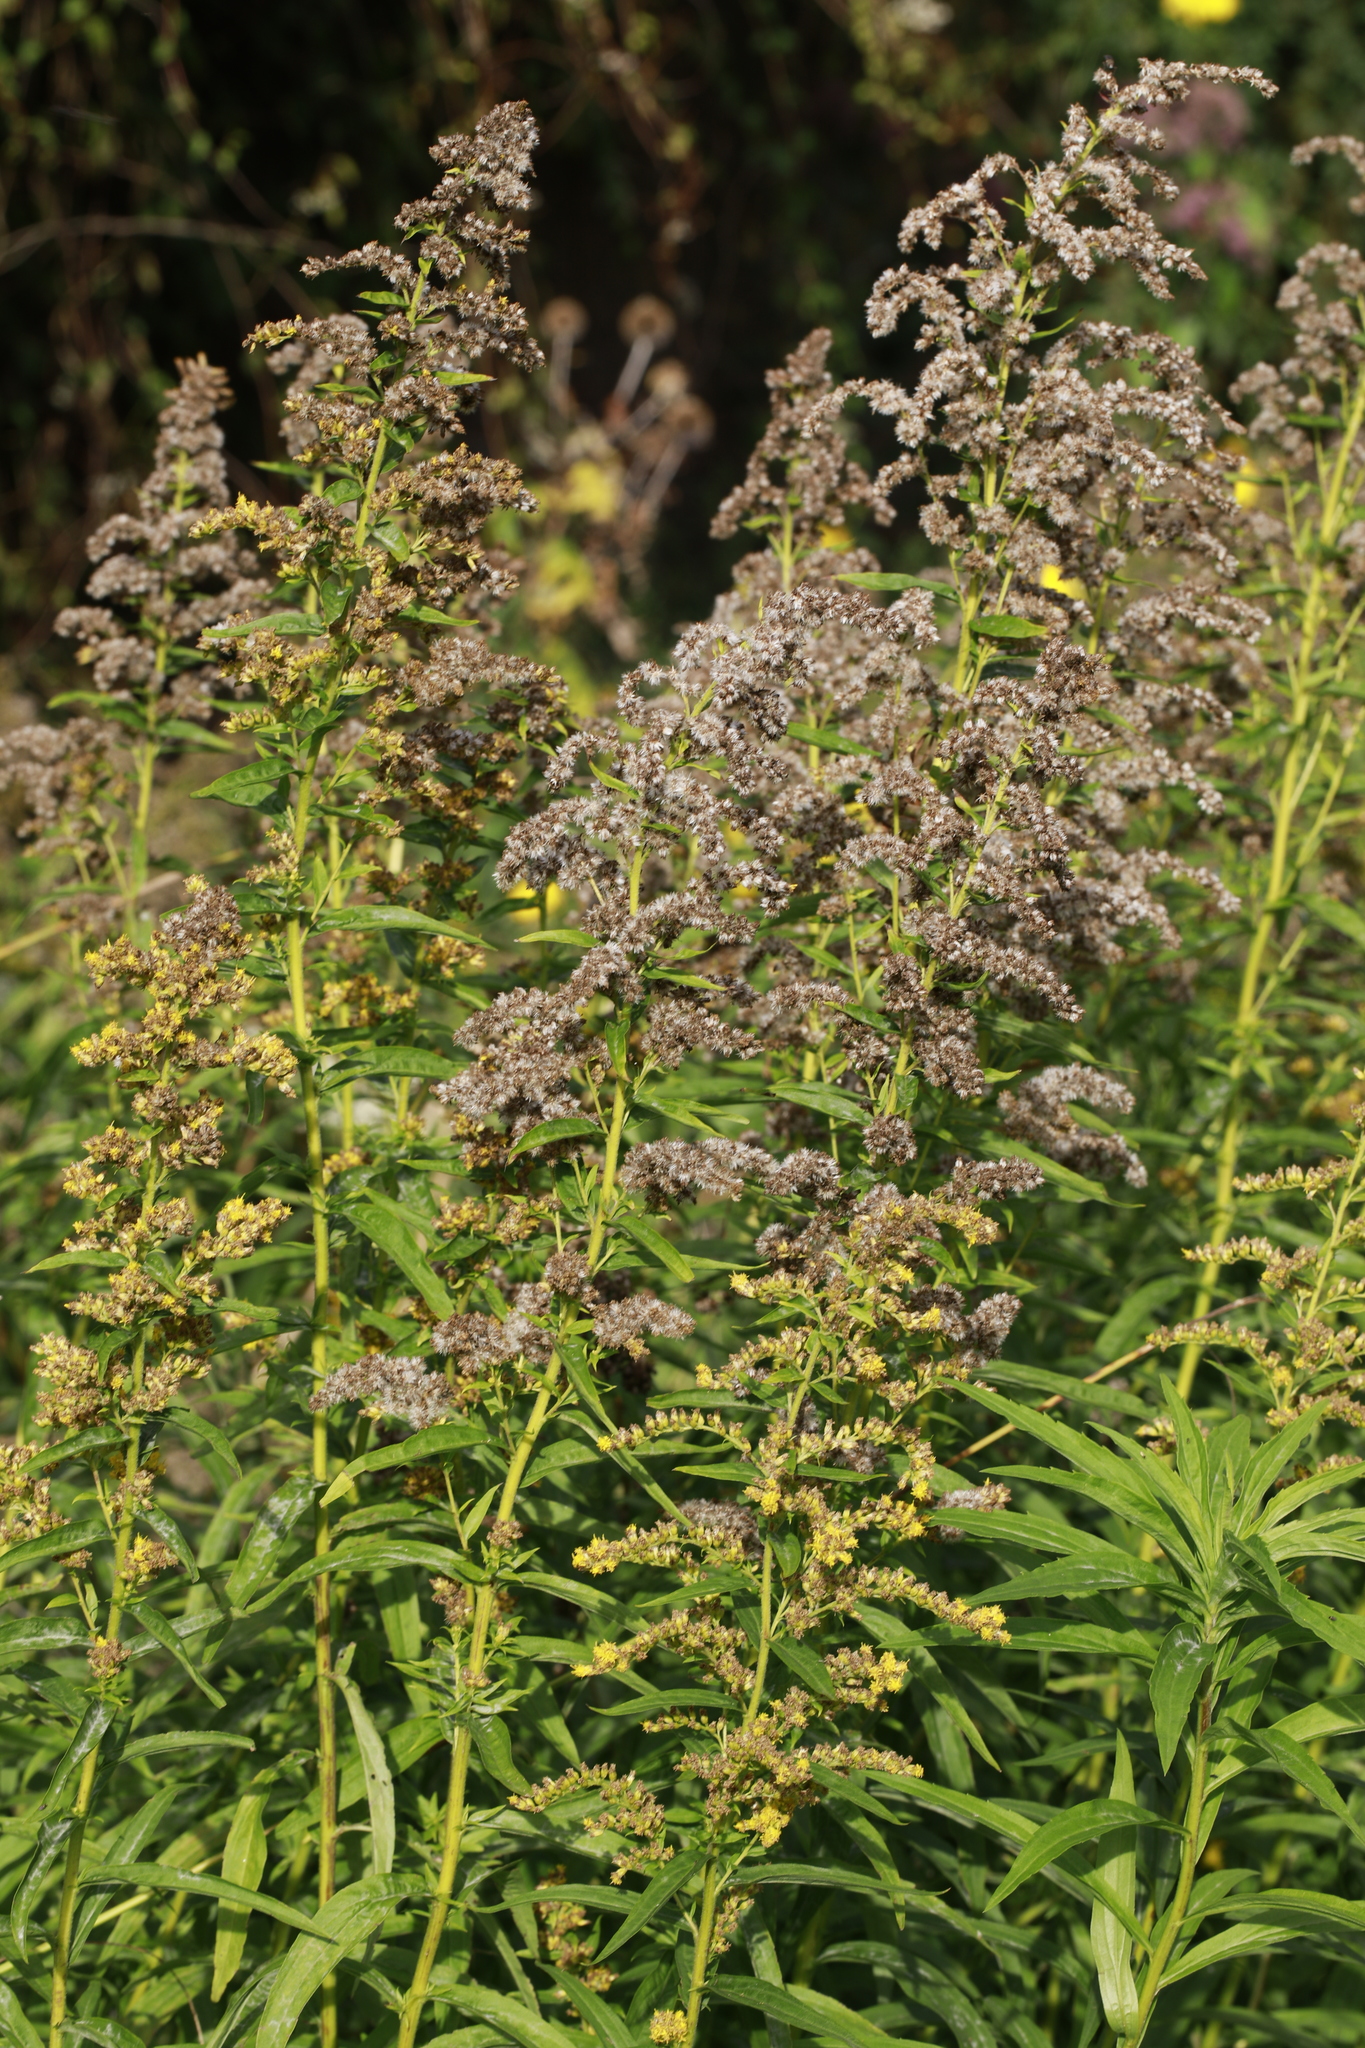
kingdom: Plantae
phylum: Tracheophyta
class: Magnoliopsida
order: Asterales
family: Asteraceae
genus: Solidago
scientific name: Solidago canadensis
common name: Canada goldenrod
